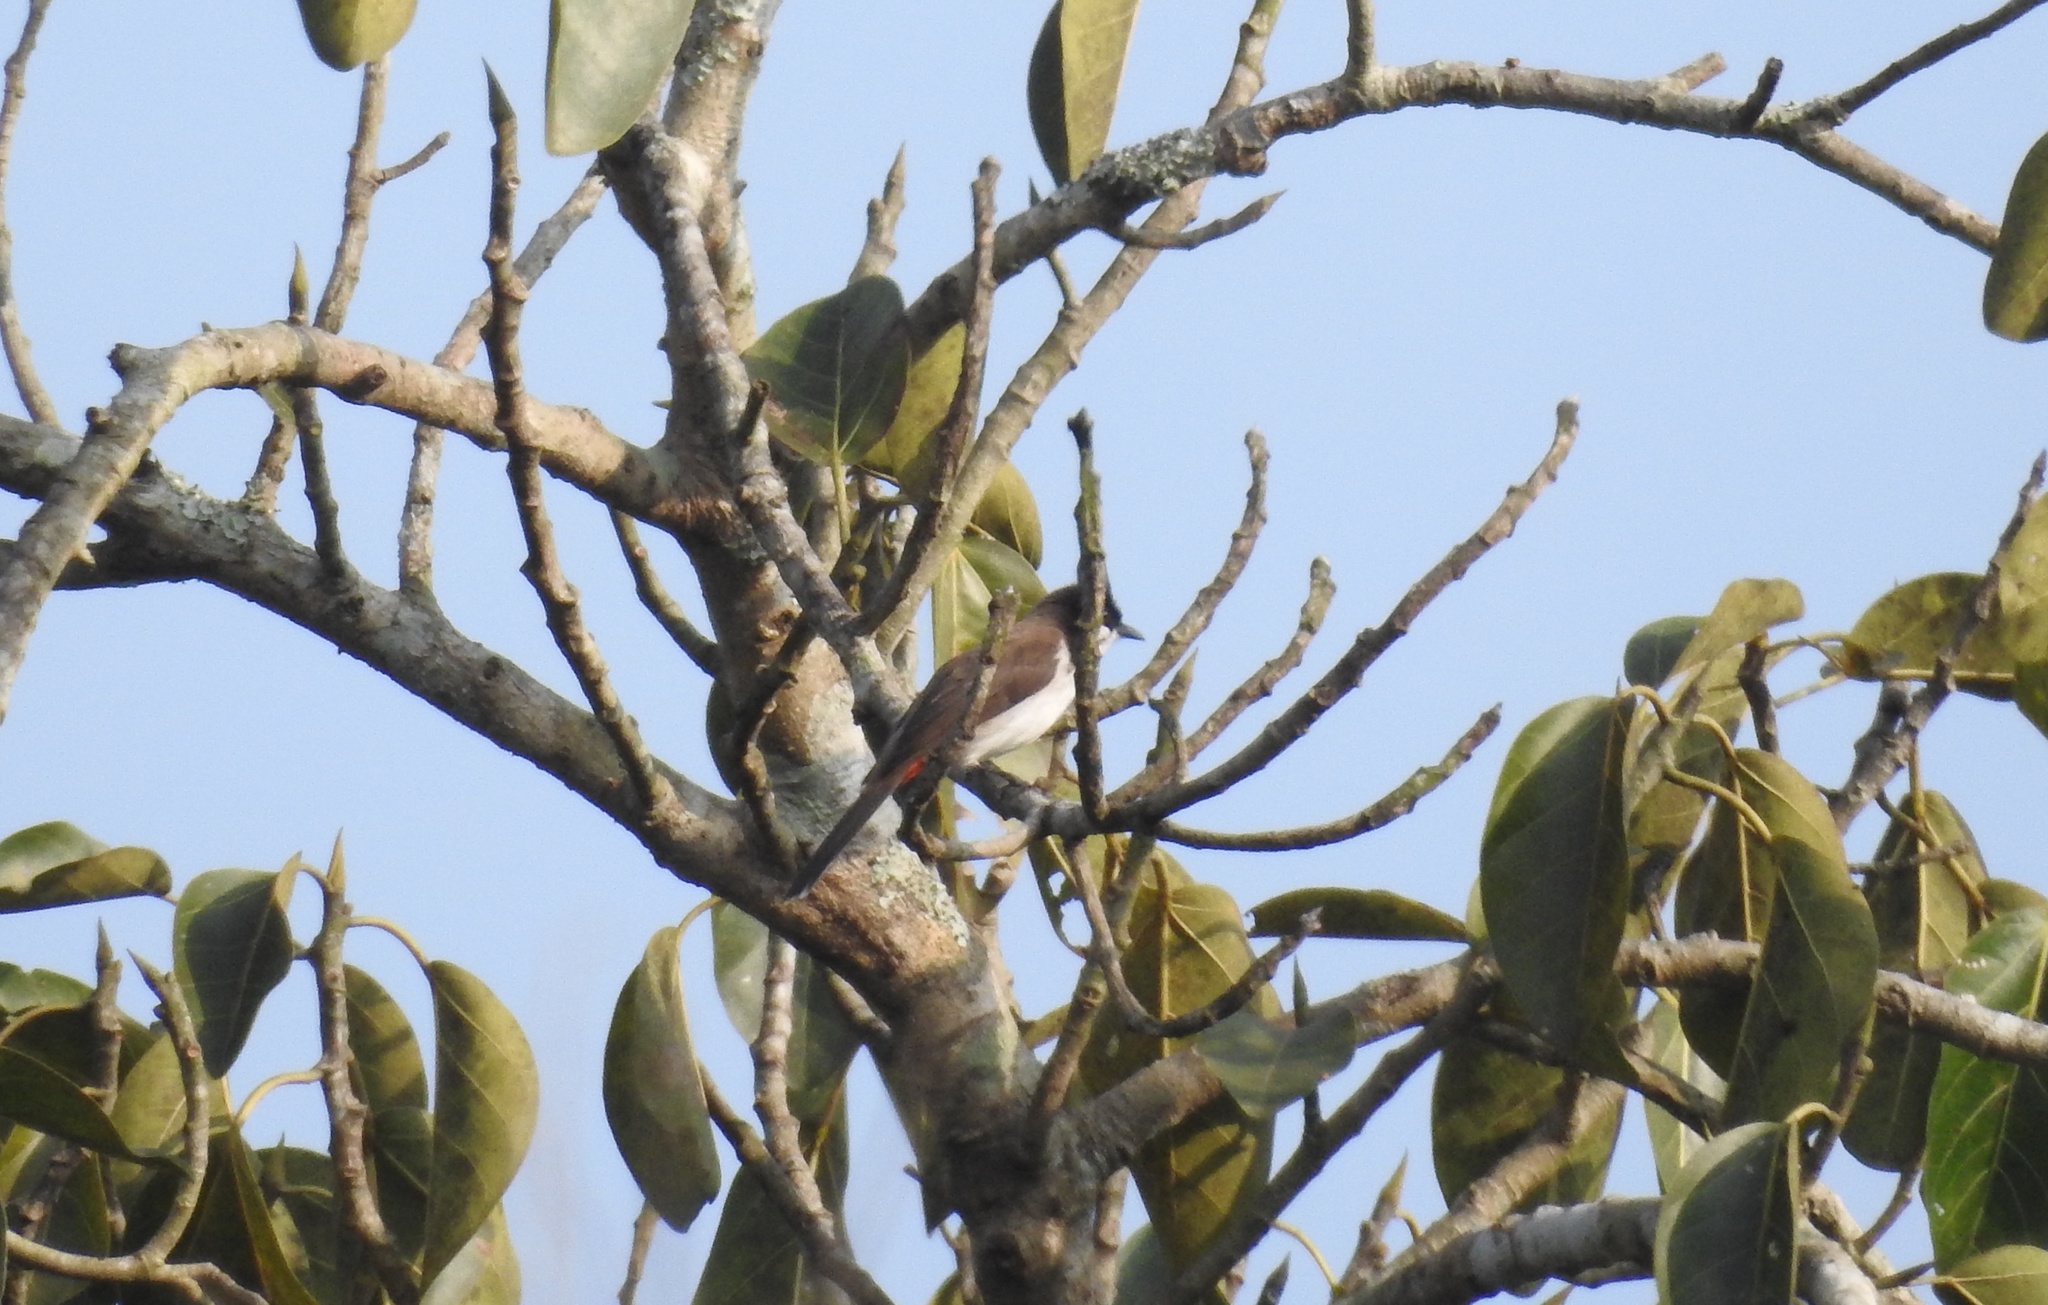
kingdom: Animalia
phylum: Chordata
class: Aves
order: Passeriformes
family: Pycnonotidae
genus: Pycnonotus
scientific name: Pycnonotus jocosus
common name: Red-whiskered bulbul
